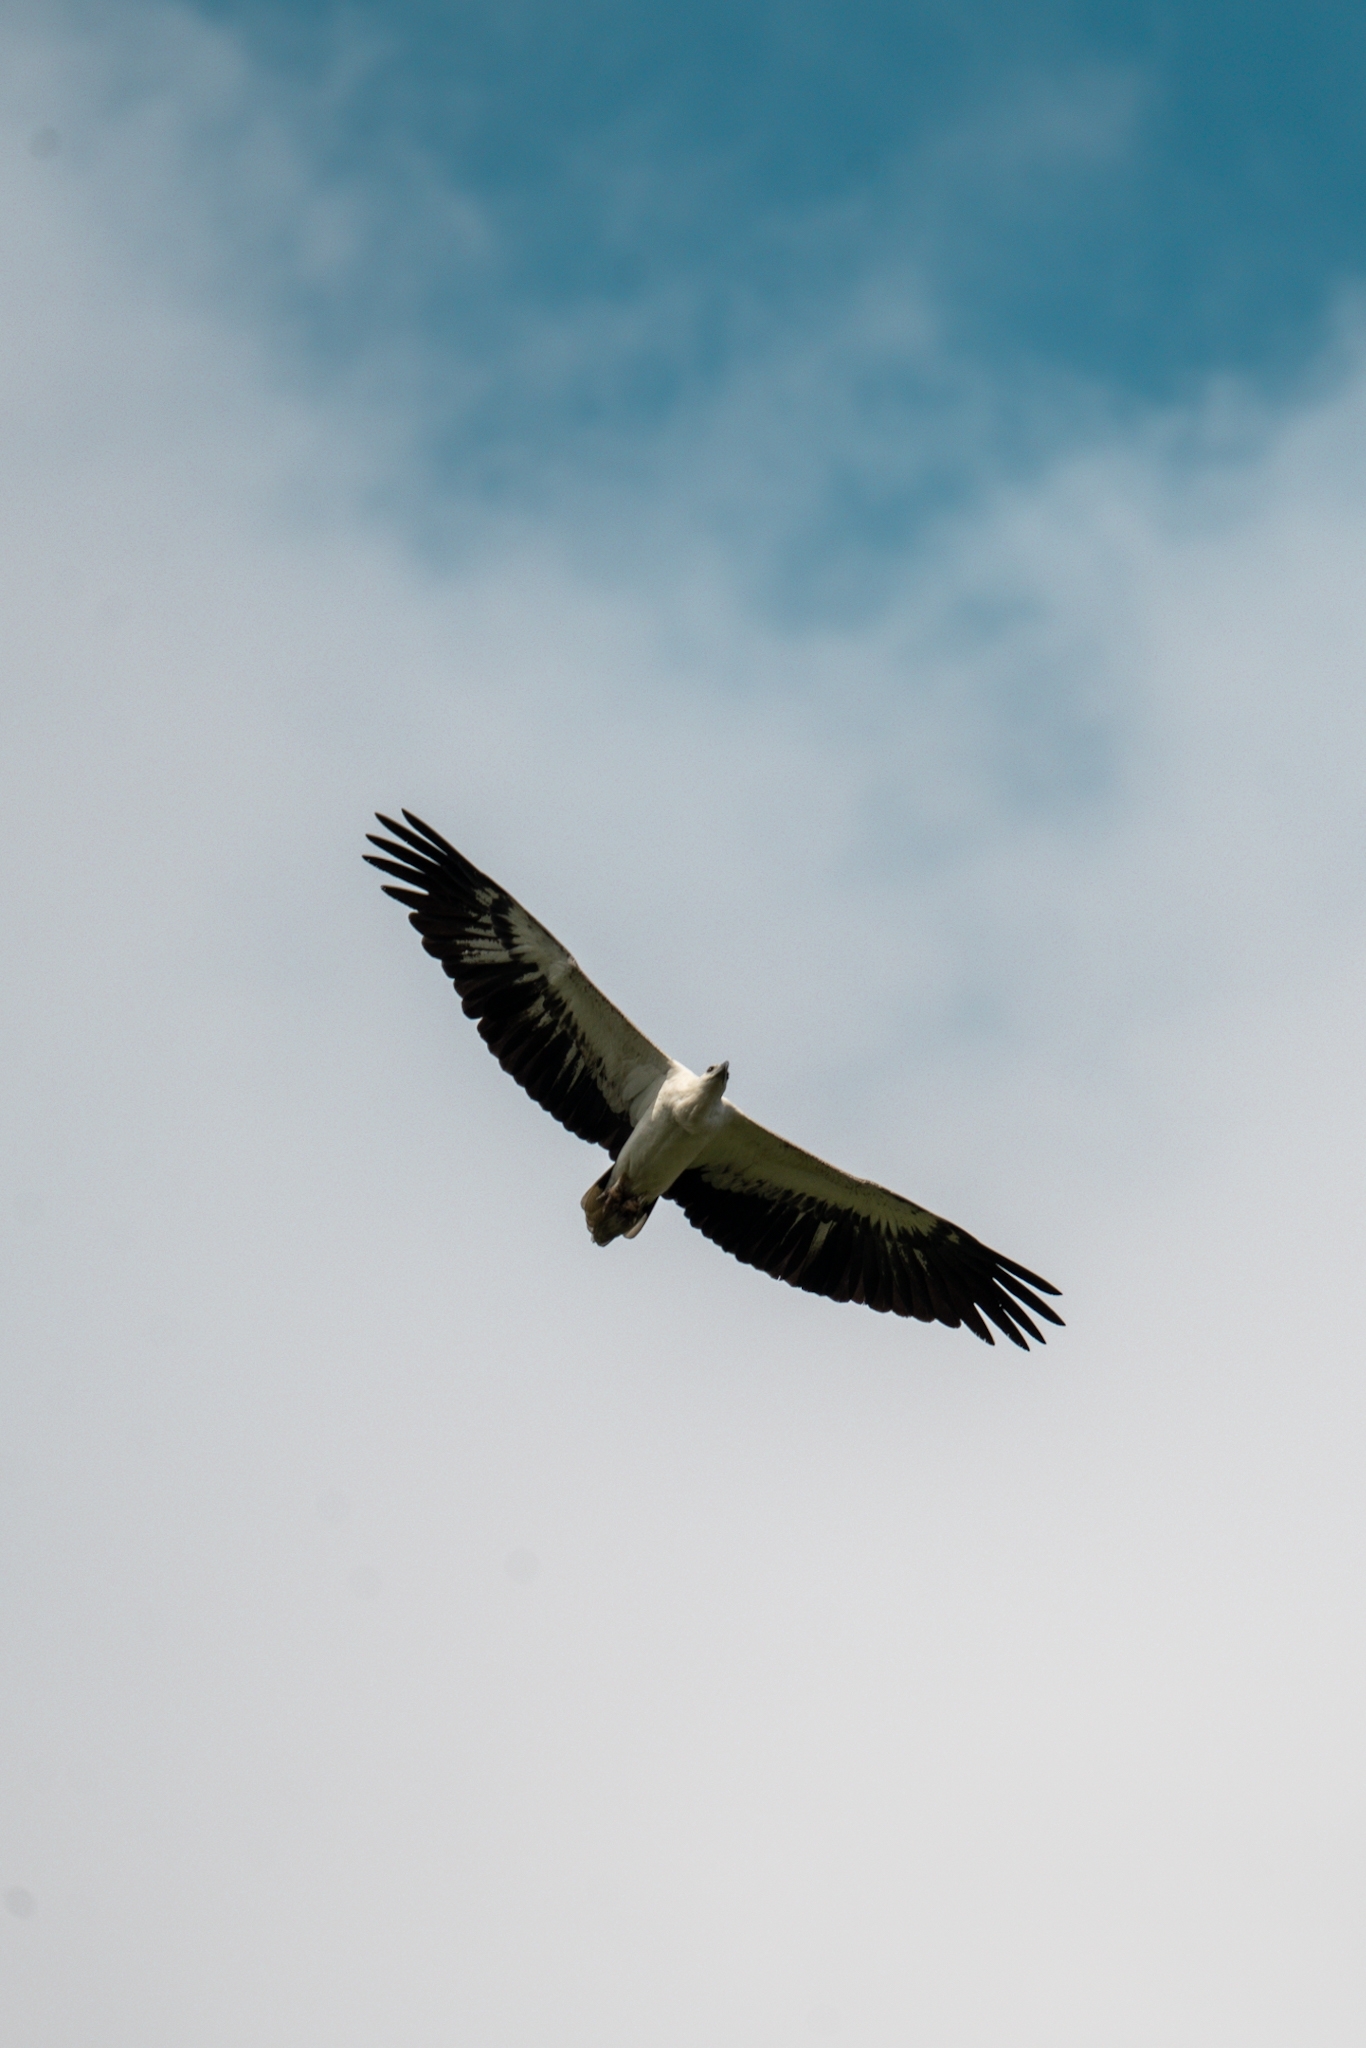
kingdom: Animalia
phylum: Chordata
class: Aves
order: Accipitriformes
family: Accipitridae
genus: Haliaeetus
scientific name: Haliaeetus leucogaster
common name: White-bellied sea eagle
